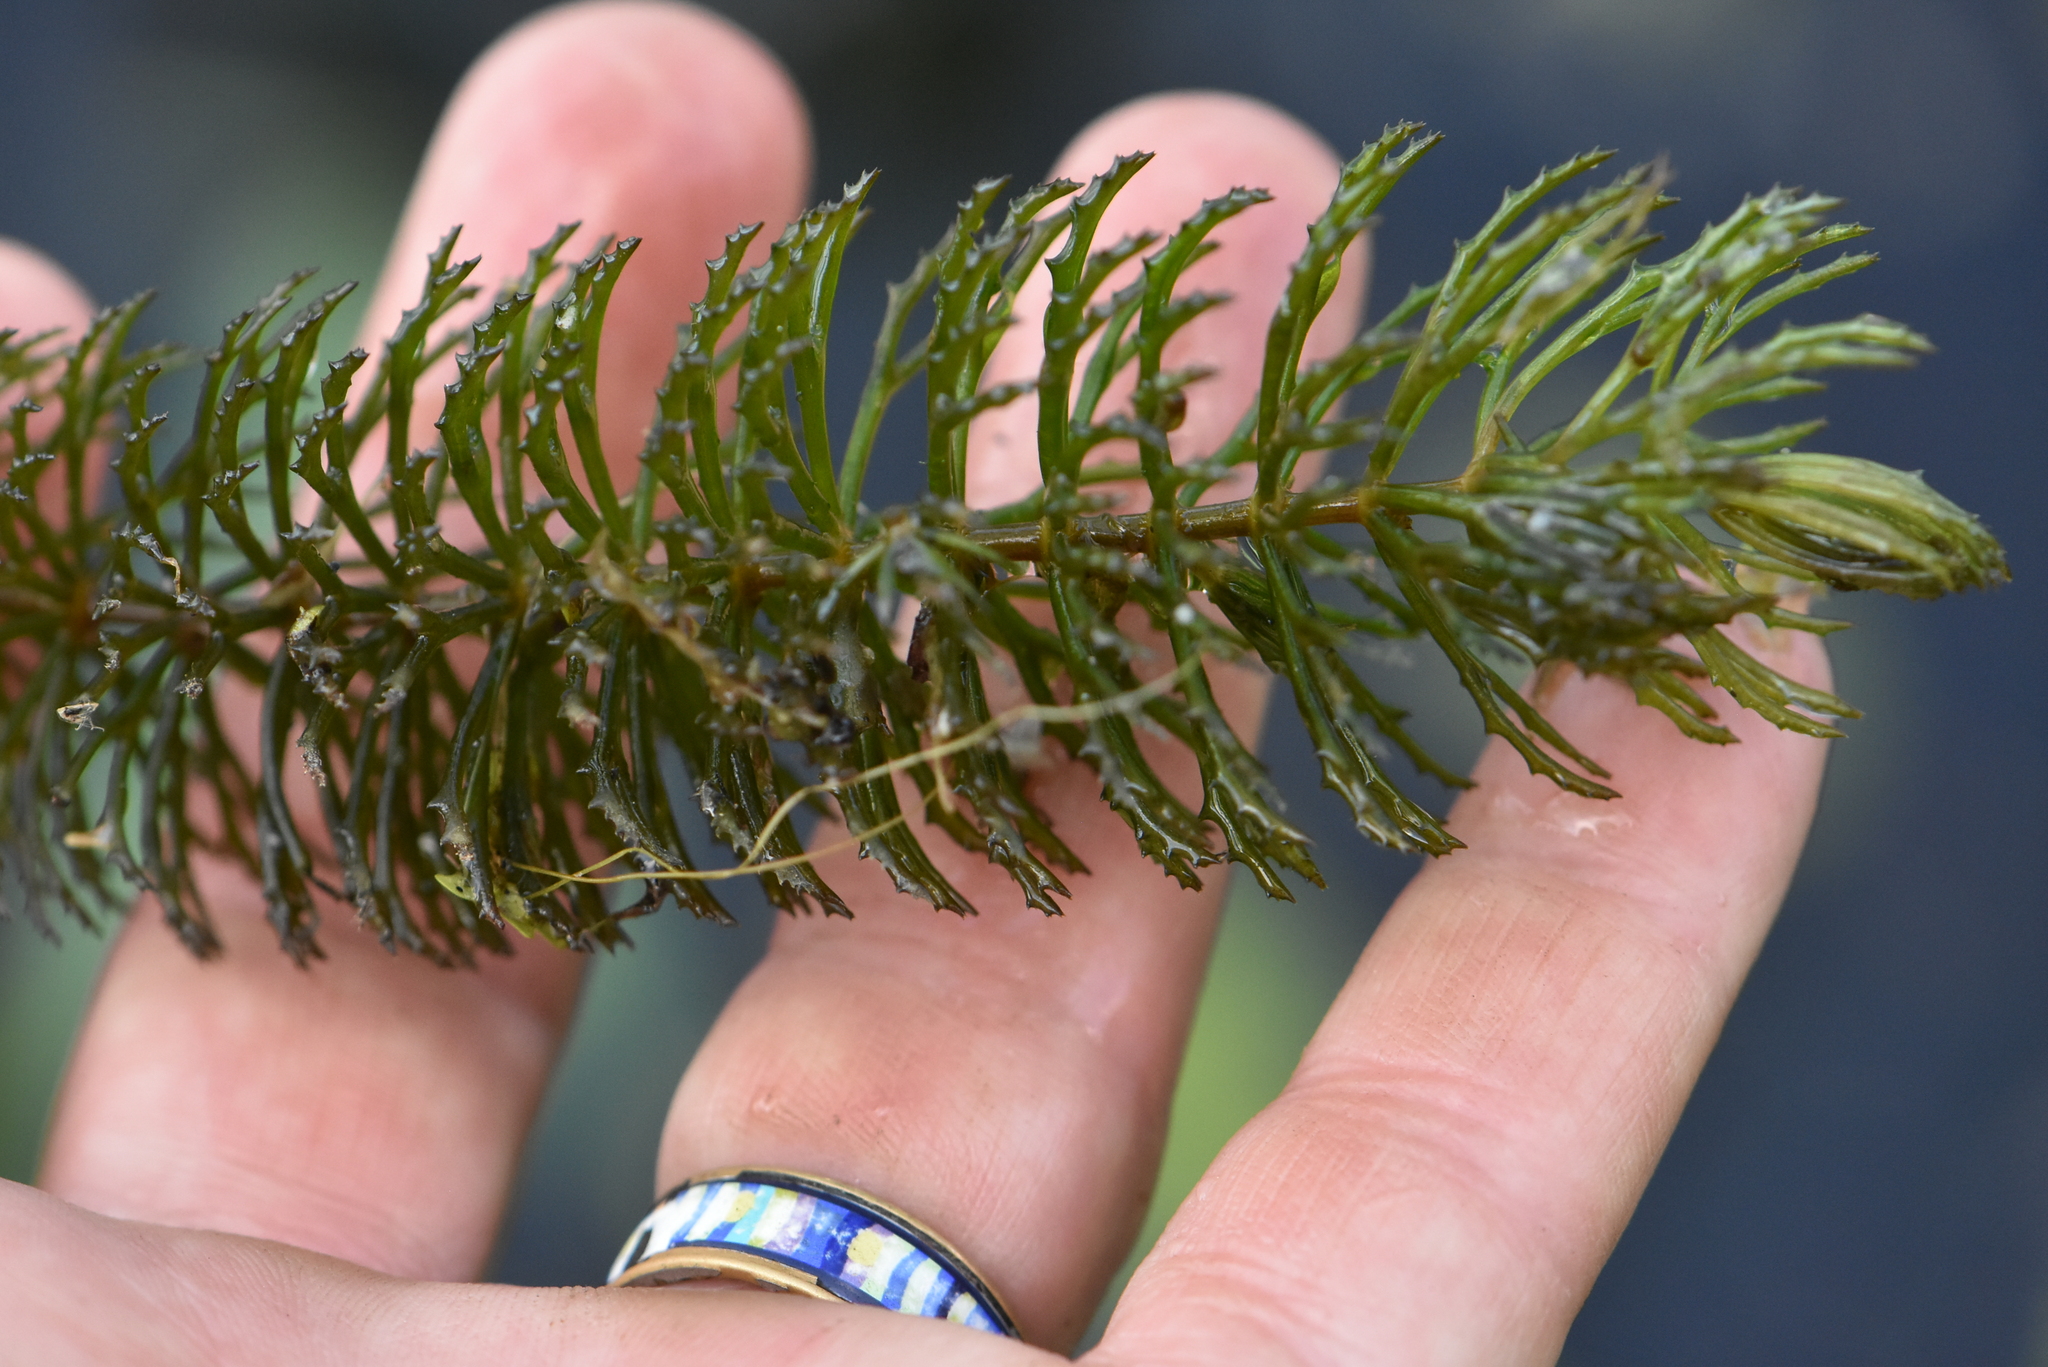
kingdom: Plantae
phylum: Tracheophyta
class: Magnoliopsida
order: Ceratophyllales
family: Ceratophyllaceae
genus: Ceratophyllum
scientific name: Ceratophyllum demersum
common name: Rigid hornwort
